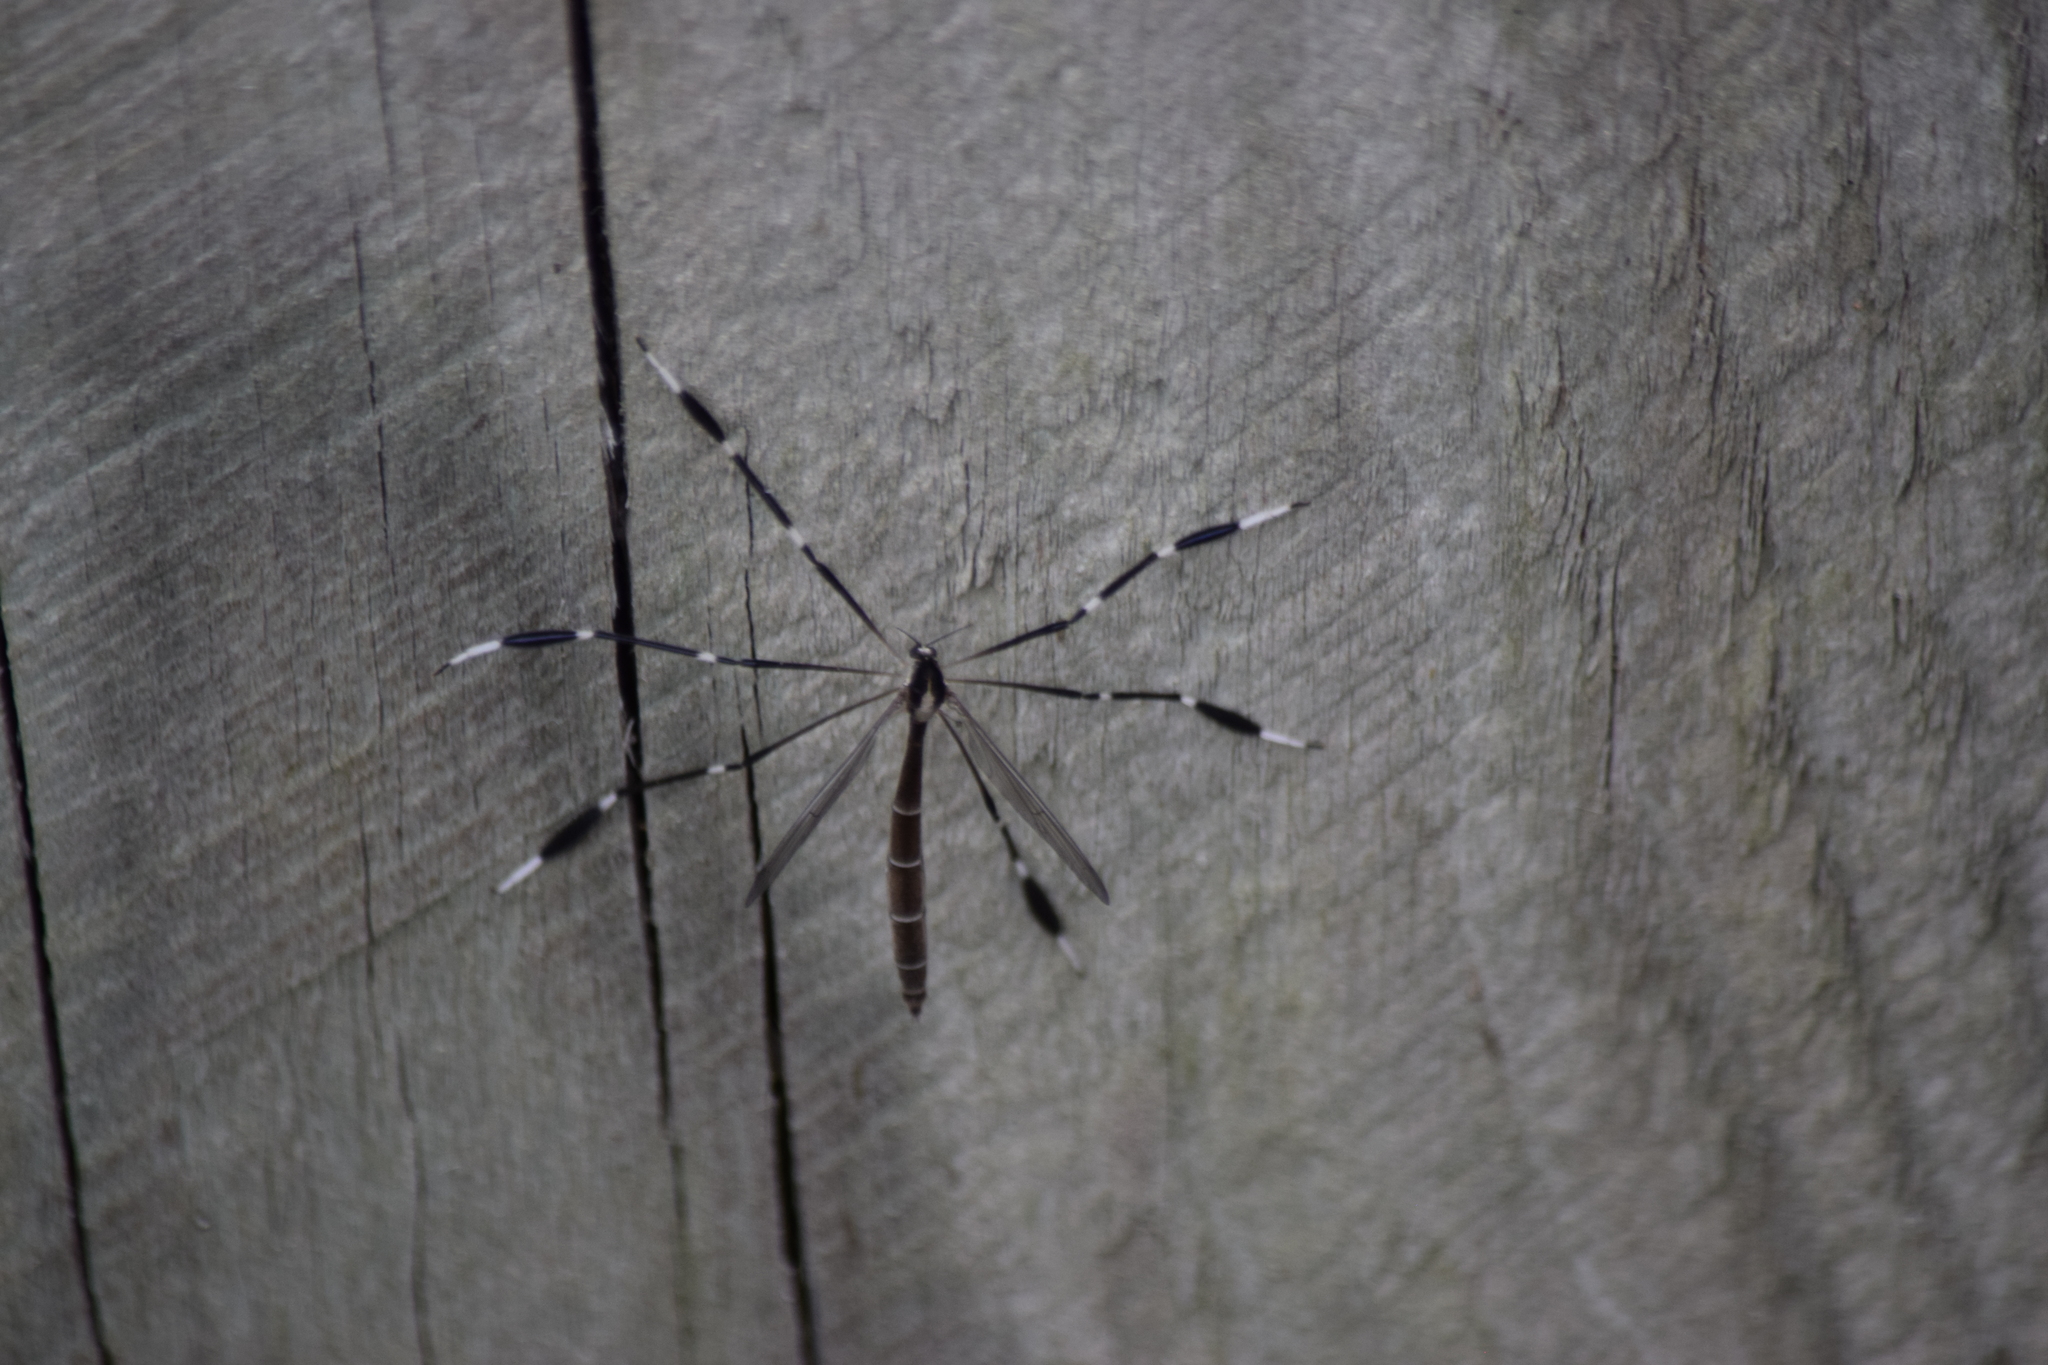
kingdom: Animalia
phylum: Arthropoda
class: Insecta
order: Diptera
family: Ptychopteridae
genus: Bittacomorpha
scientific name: Bittacomorpha clavipes
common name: Eastern phantom crane fly
